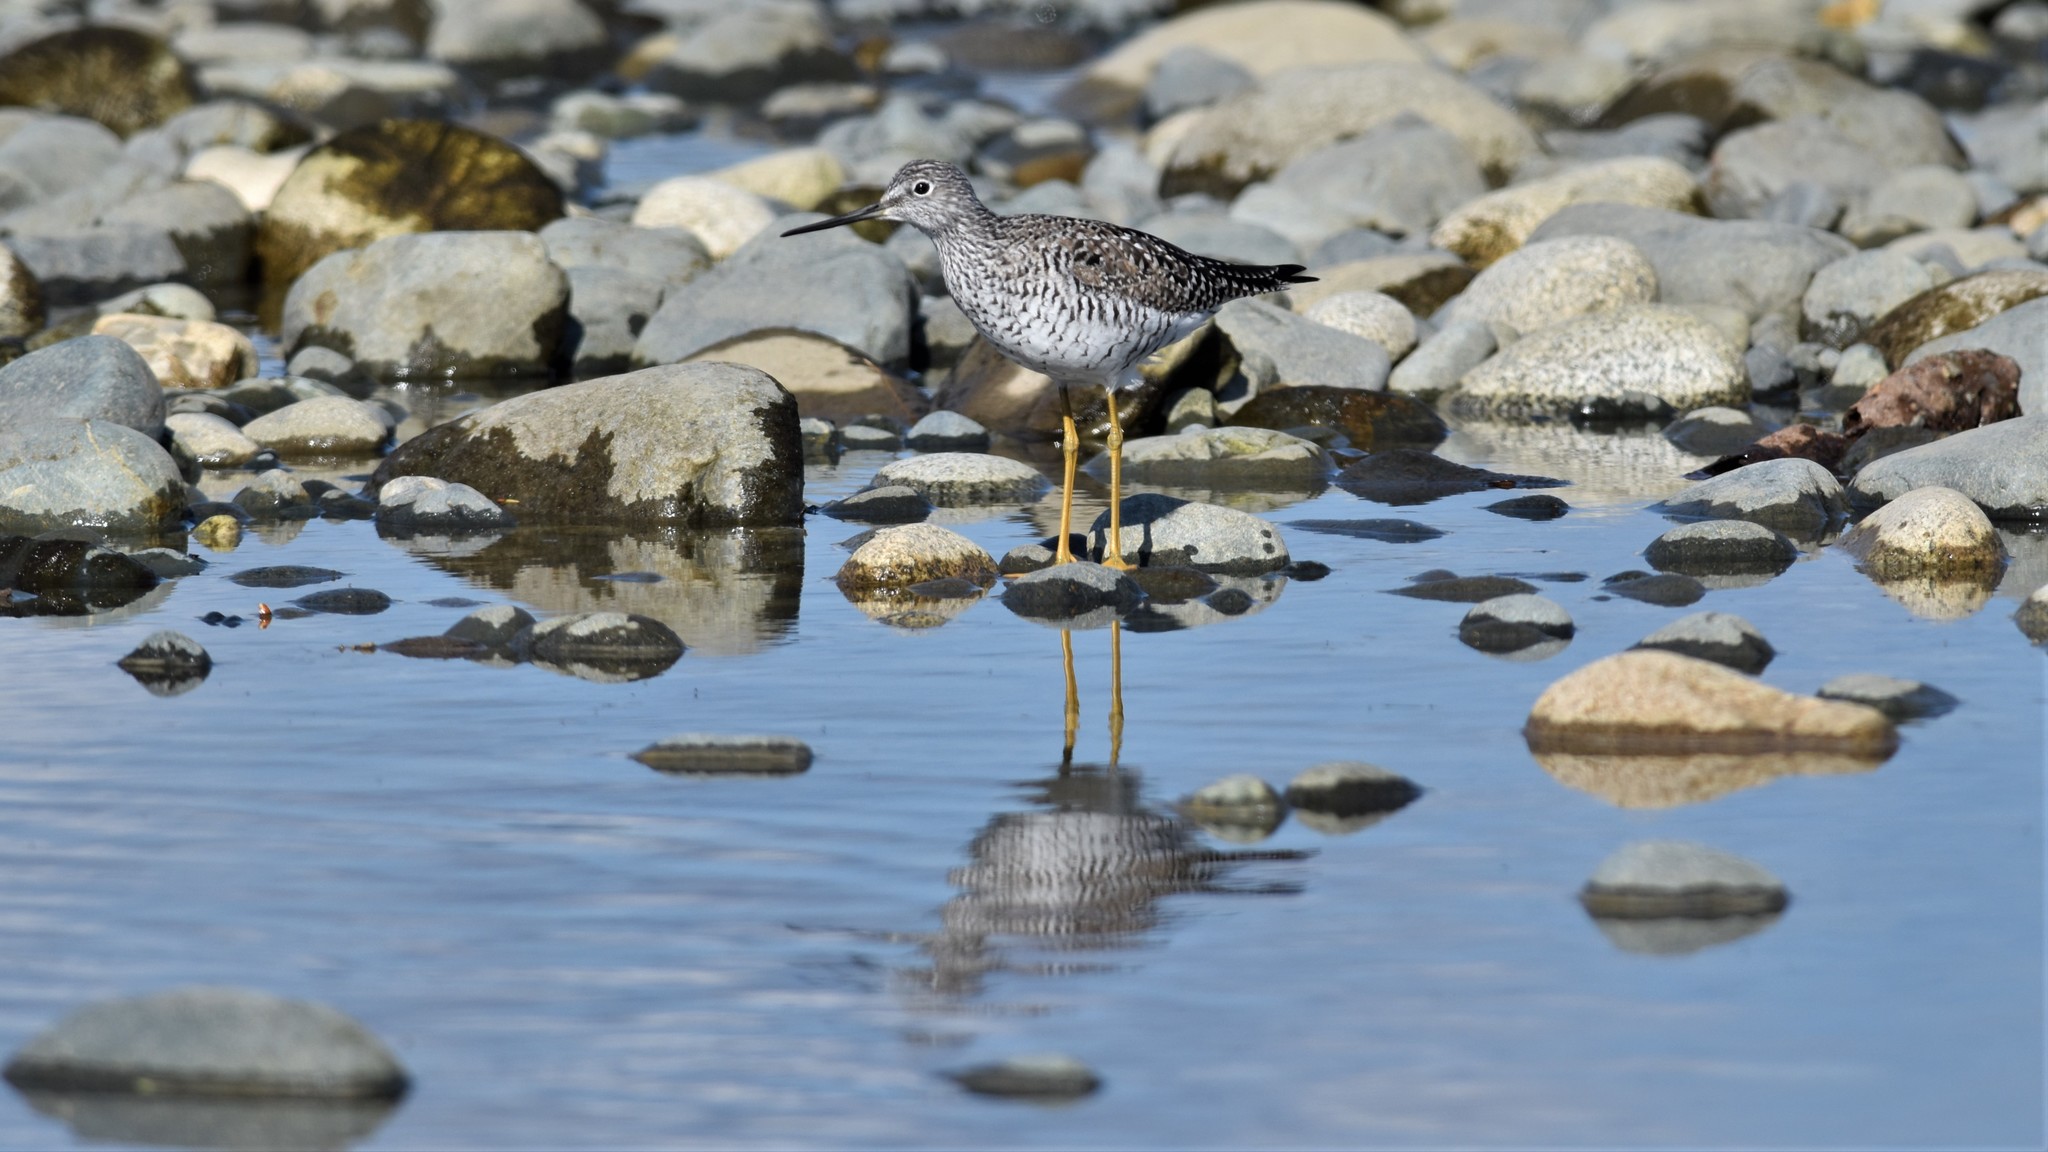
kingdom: Animalia
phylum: Chordata
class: Aves
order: Charadriiformes
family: Scolopacidae
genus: Tringa
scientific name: Tringa melanoleuca
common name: Greater yellowlegs
